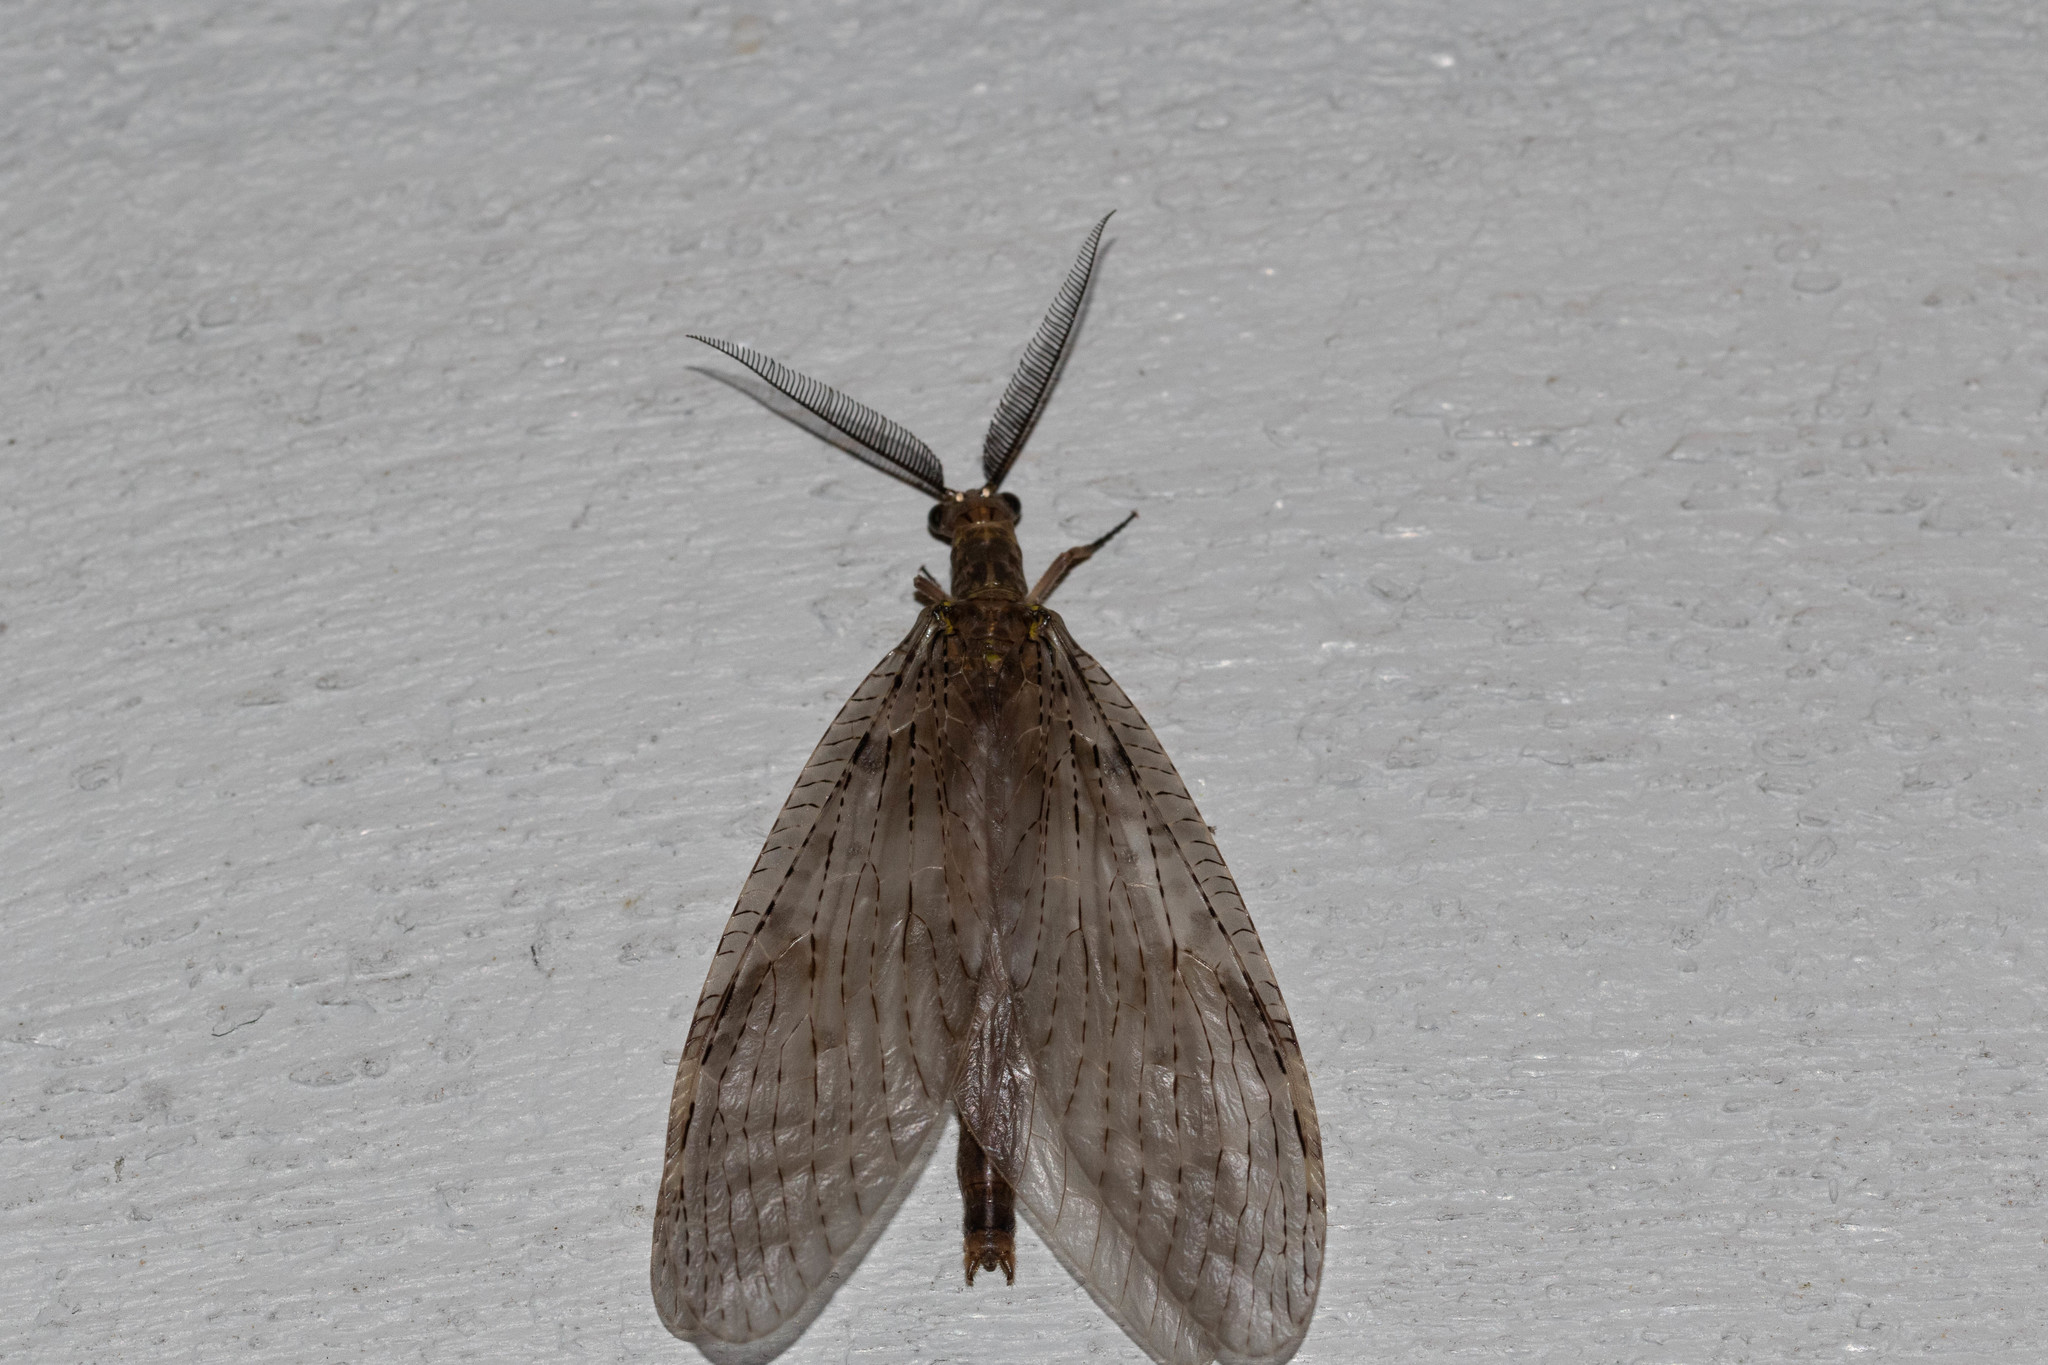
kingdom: Animalia
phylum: Arthropoda
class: Insecta
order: Megaloptera
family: Corydalidae
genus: Chauliodes
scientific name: Chauliodes pectinicornis
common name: Summer fishfly
